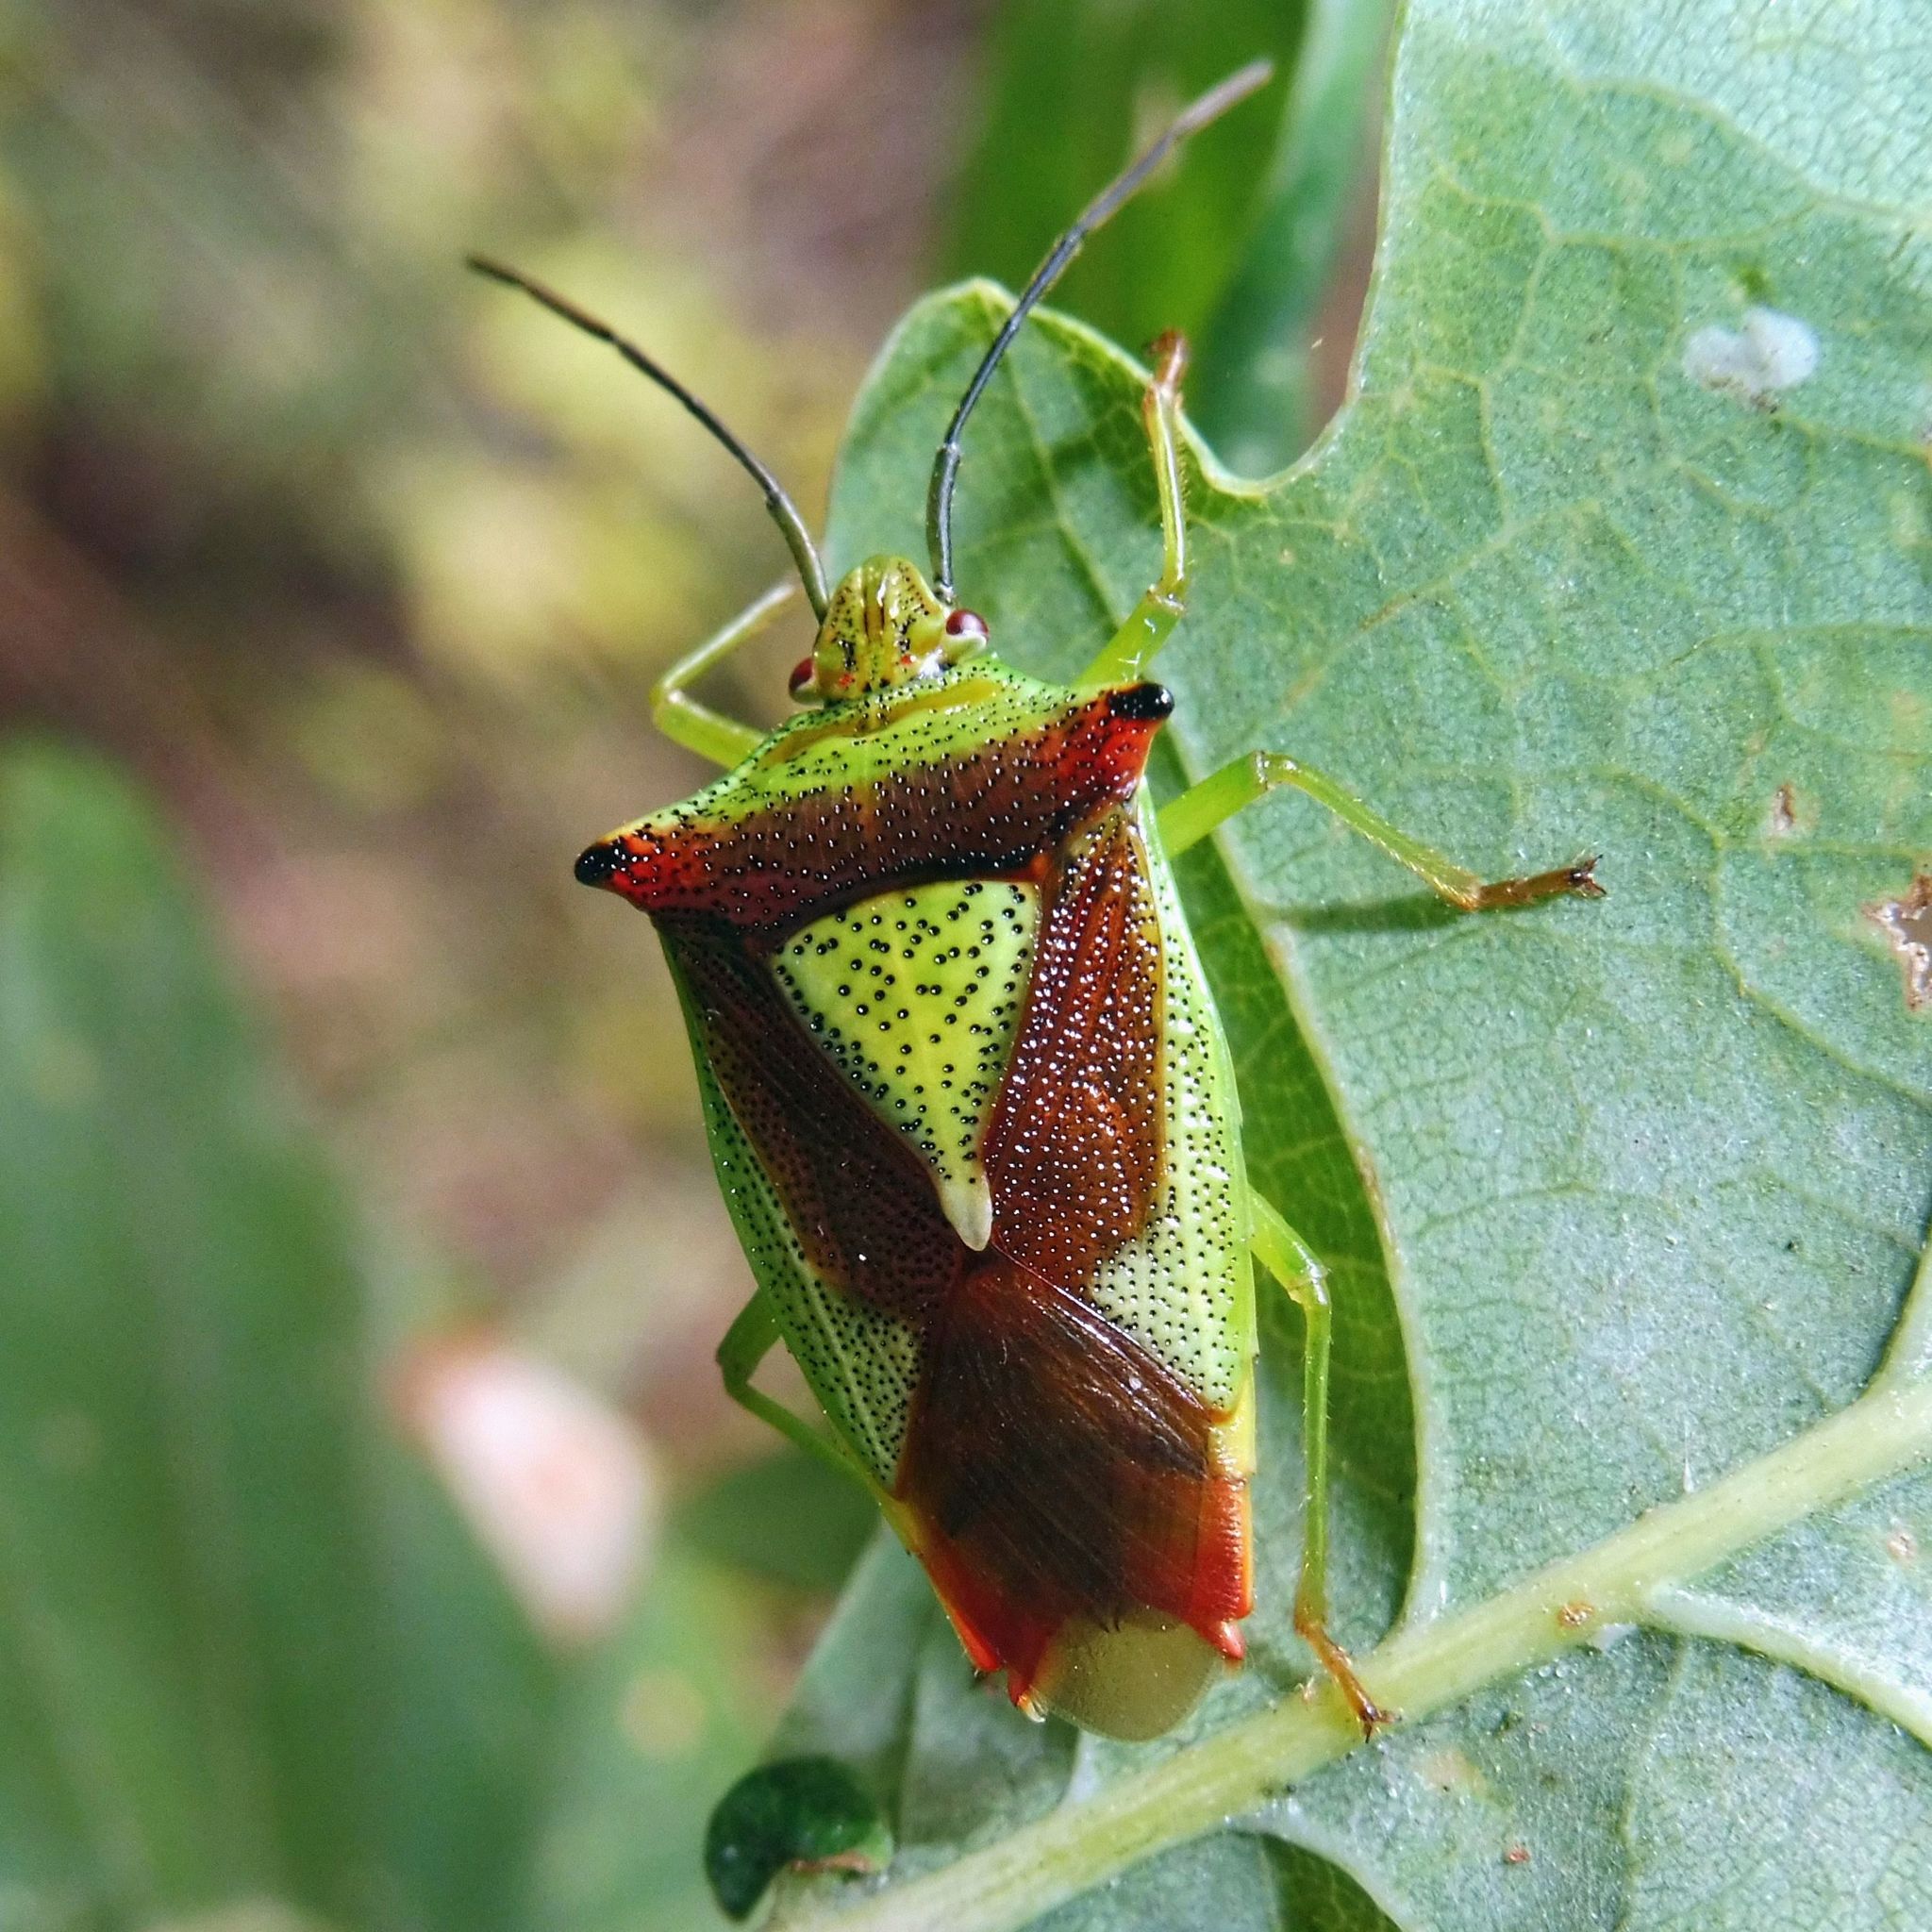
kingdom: Animalia
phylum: Arthropoda
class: Insecta
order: Hemiptera
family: Acanthosomatidae
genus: Acanthosoma
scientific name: Acanthosoma haemorrhoidale
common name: Hawthorn shieldbug
